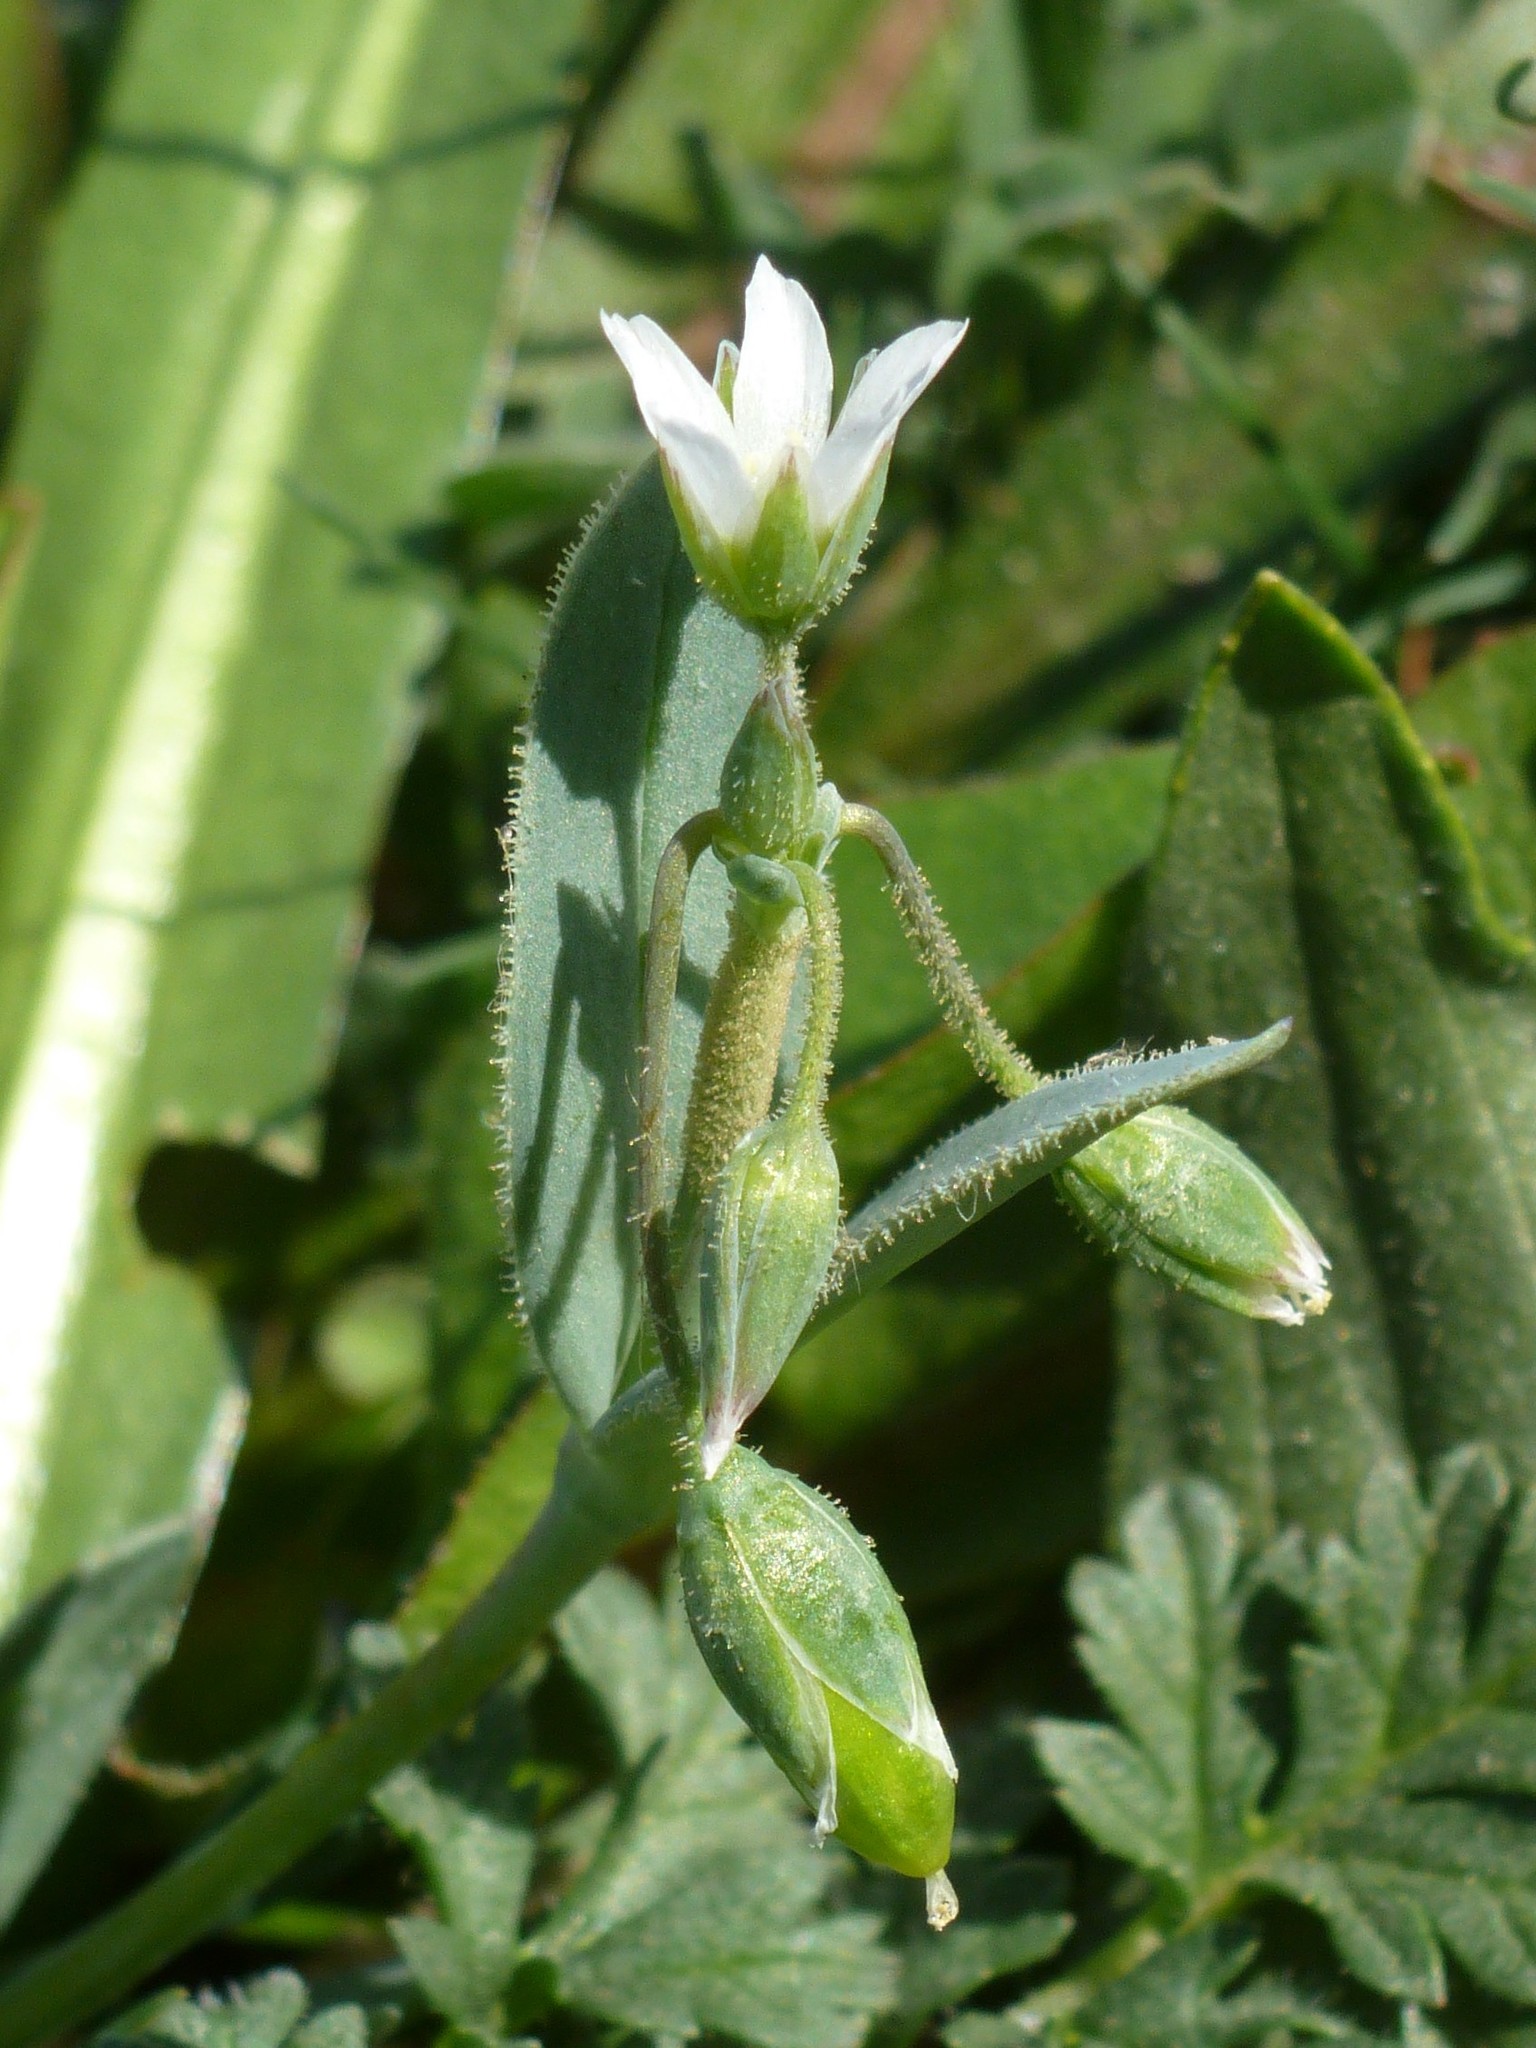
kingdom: Plantae
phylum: Tracheophyta
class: Magnoliopsida
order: Caryophyllales
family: Caryophyllaceae
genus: Holosteum
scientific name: Holosteum umbellatum
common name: Jagged chickweed
